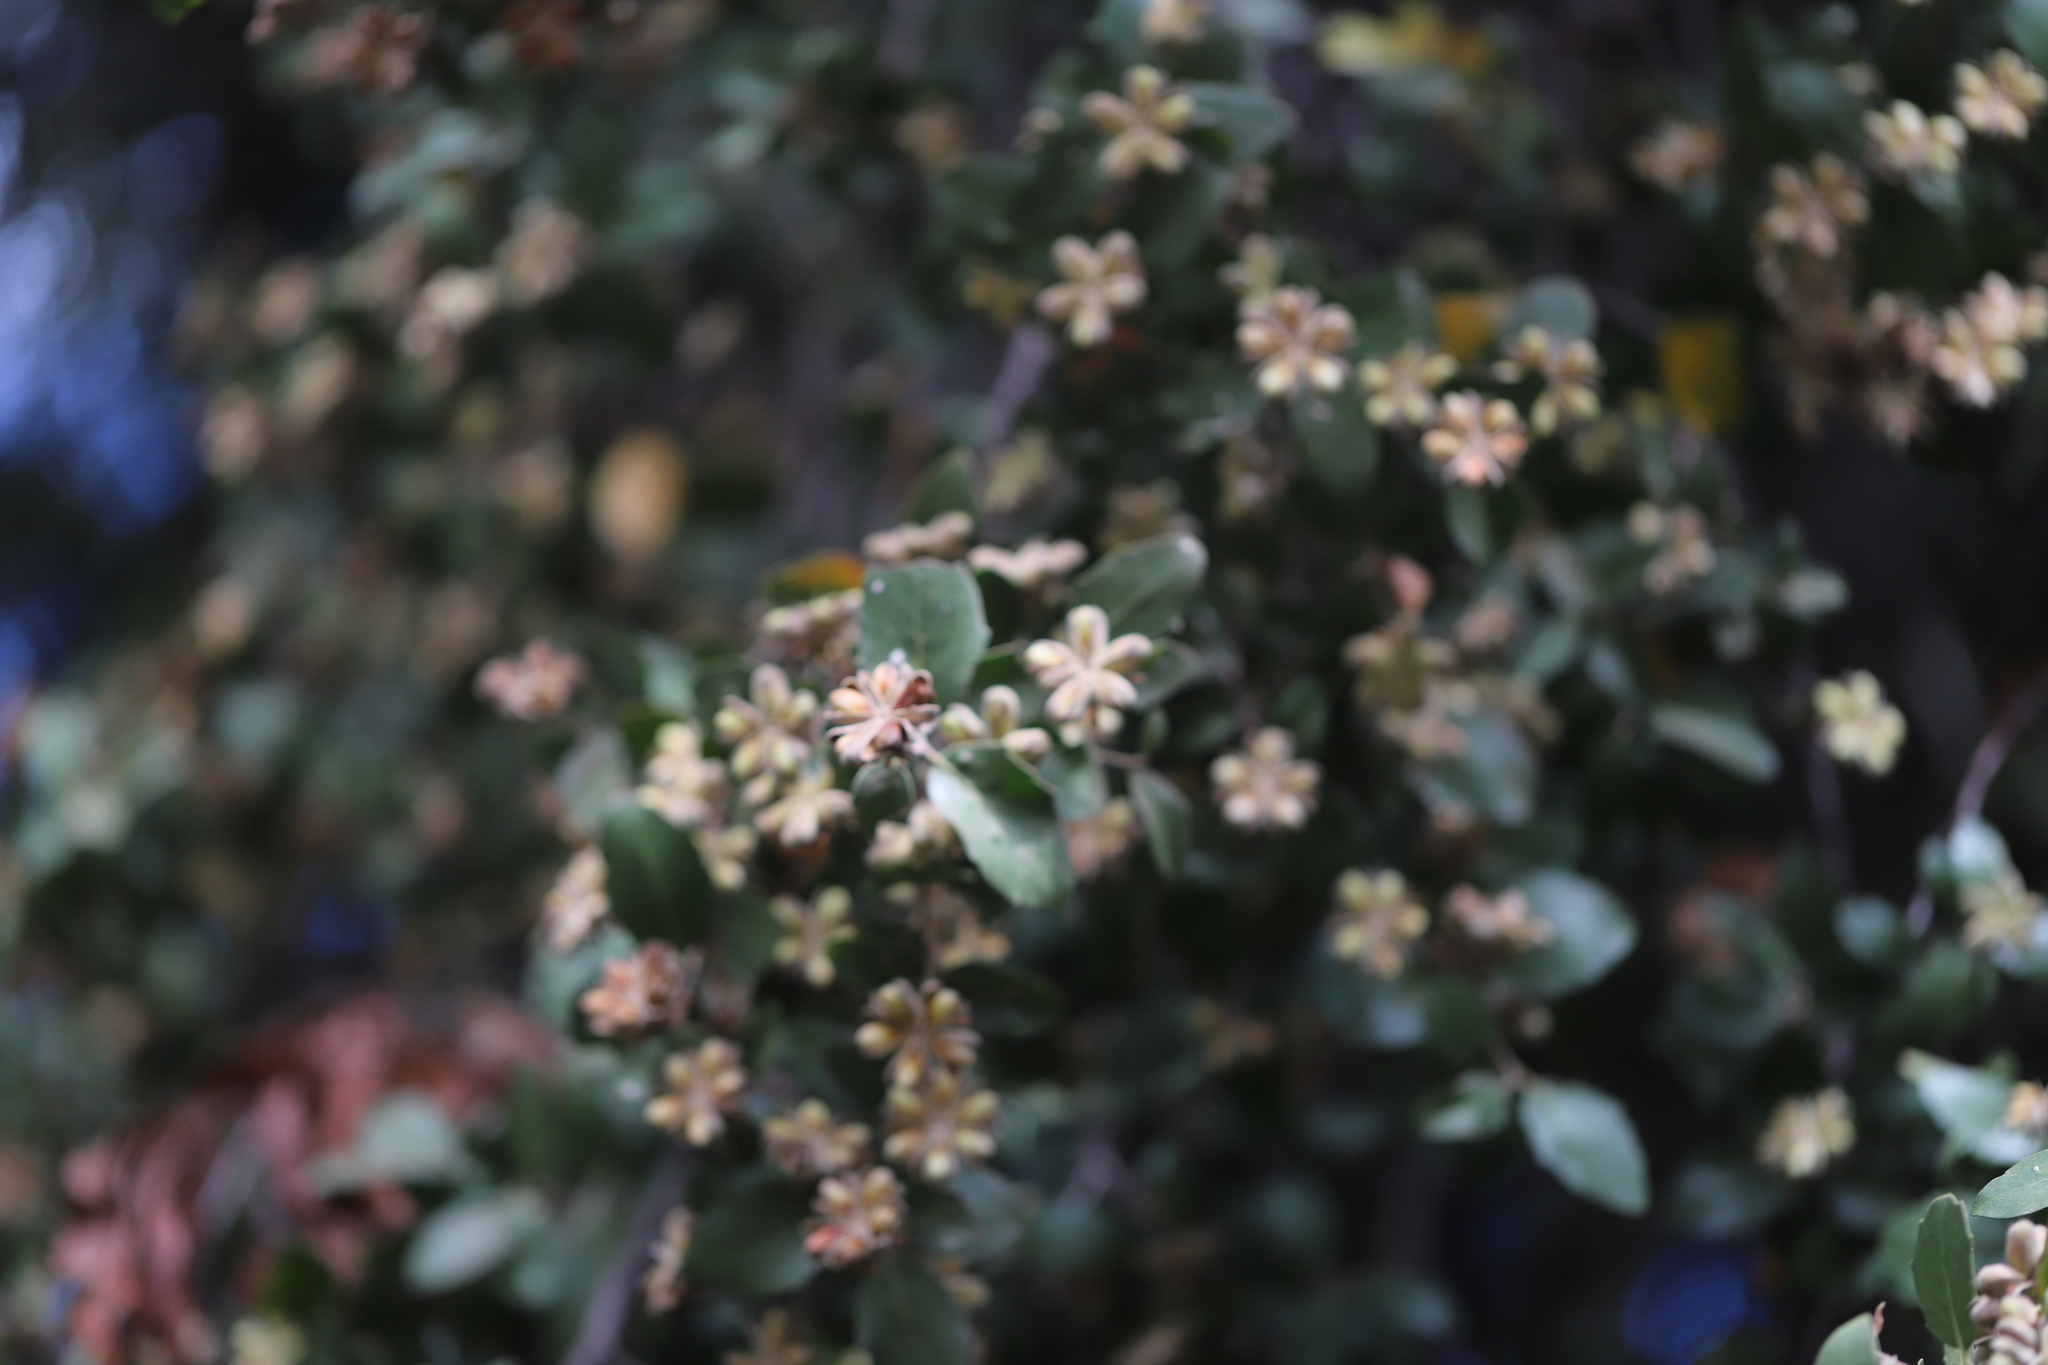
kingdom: Plantae
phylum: Tracheophyta
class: Magnoliopsida
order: Fabales
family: Quillajaceae
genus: Quillaja
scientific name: Quillaja saponaria
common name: Murillo's-bark
